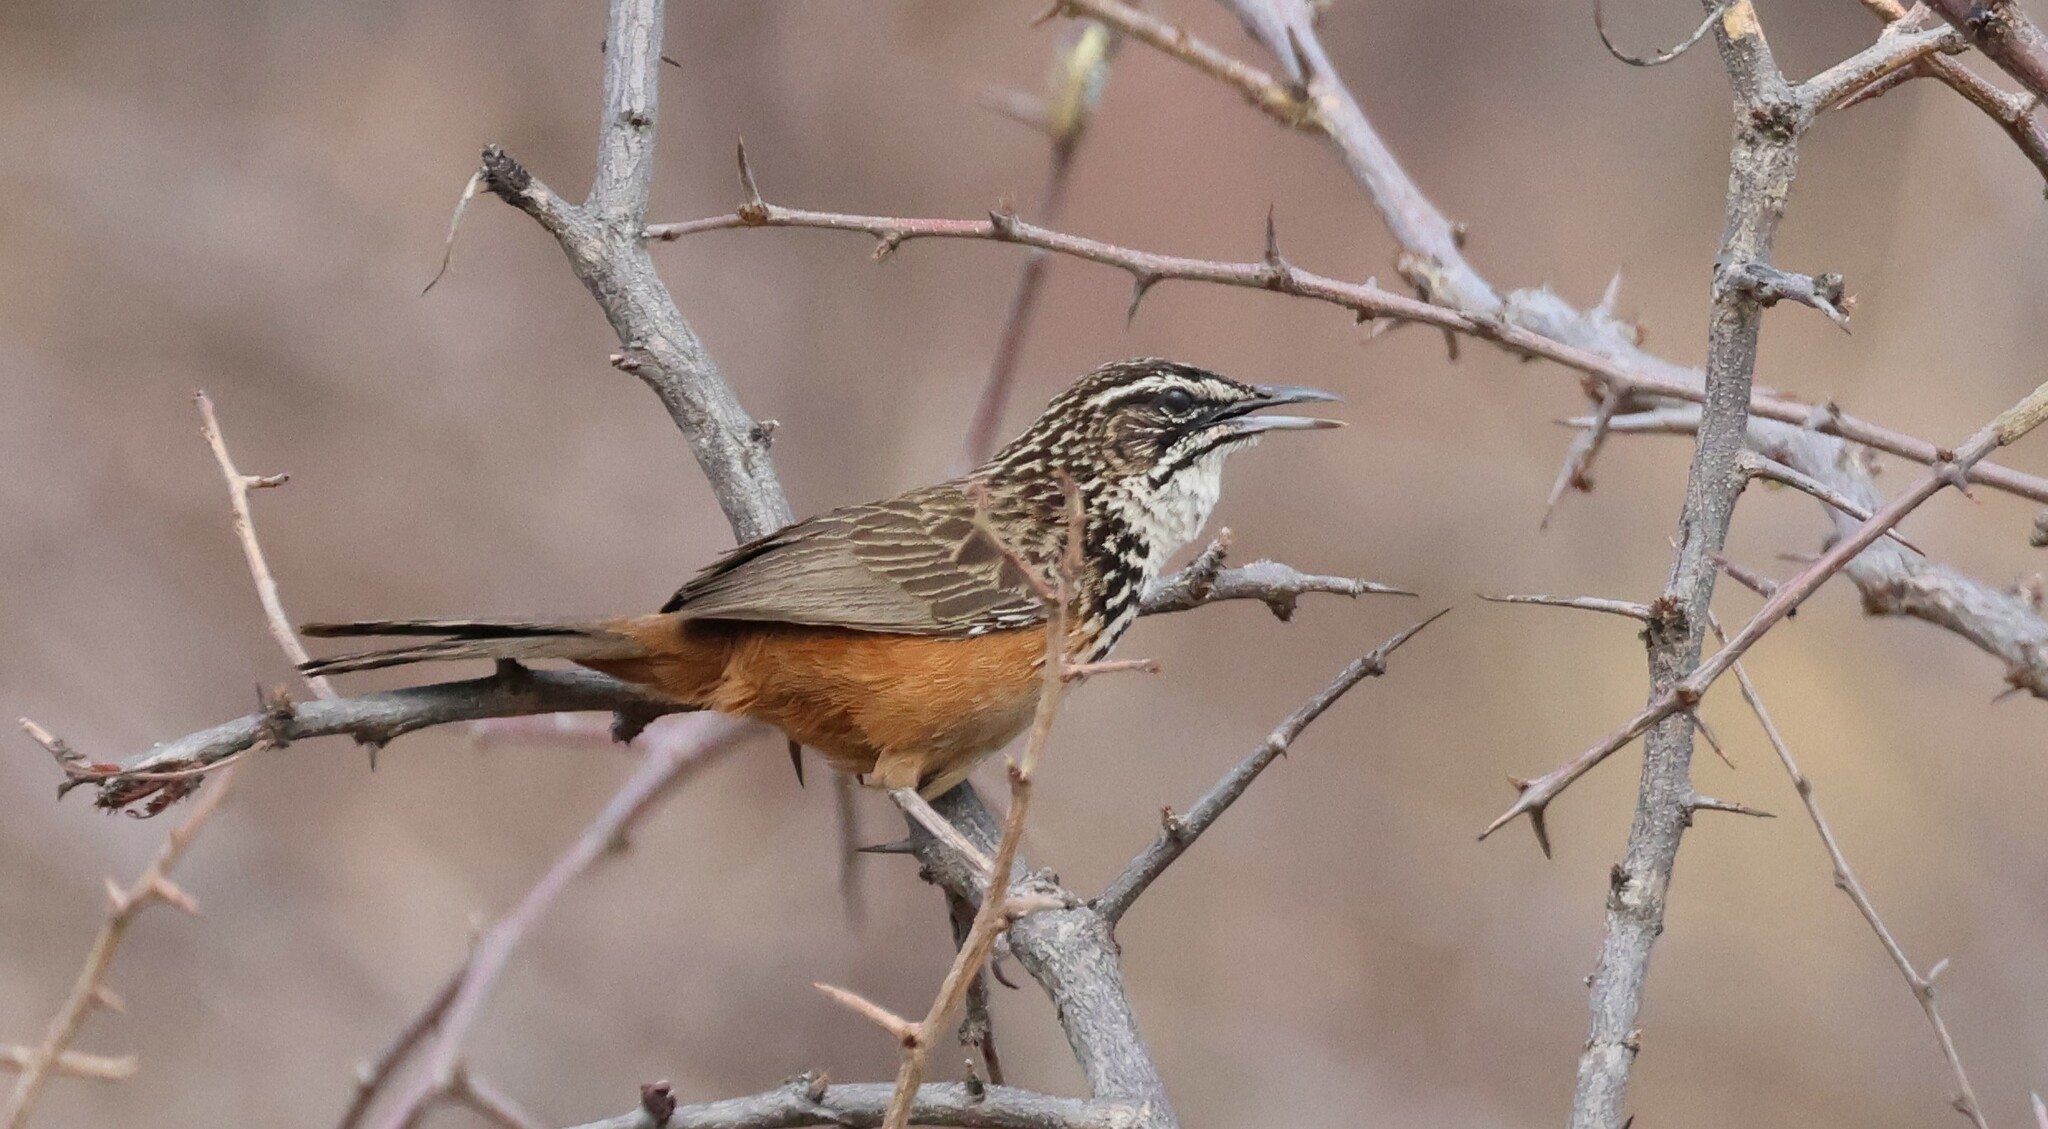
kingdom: Animalia
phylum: Chordata
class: Aves
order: Passeriformes
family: Macrosphenidae
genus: Achaetops
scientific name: Achaetops pycnopygius
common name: Rockrunner
